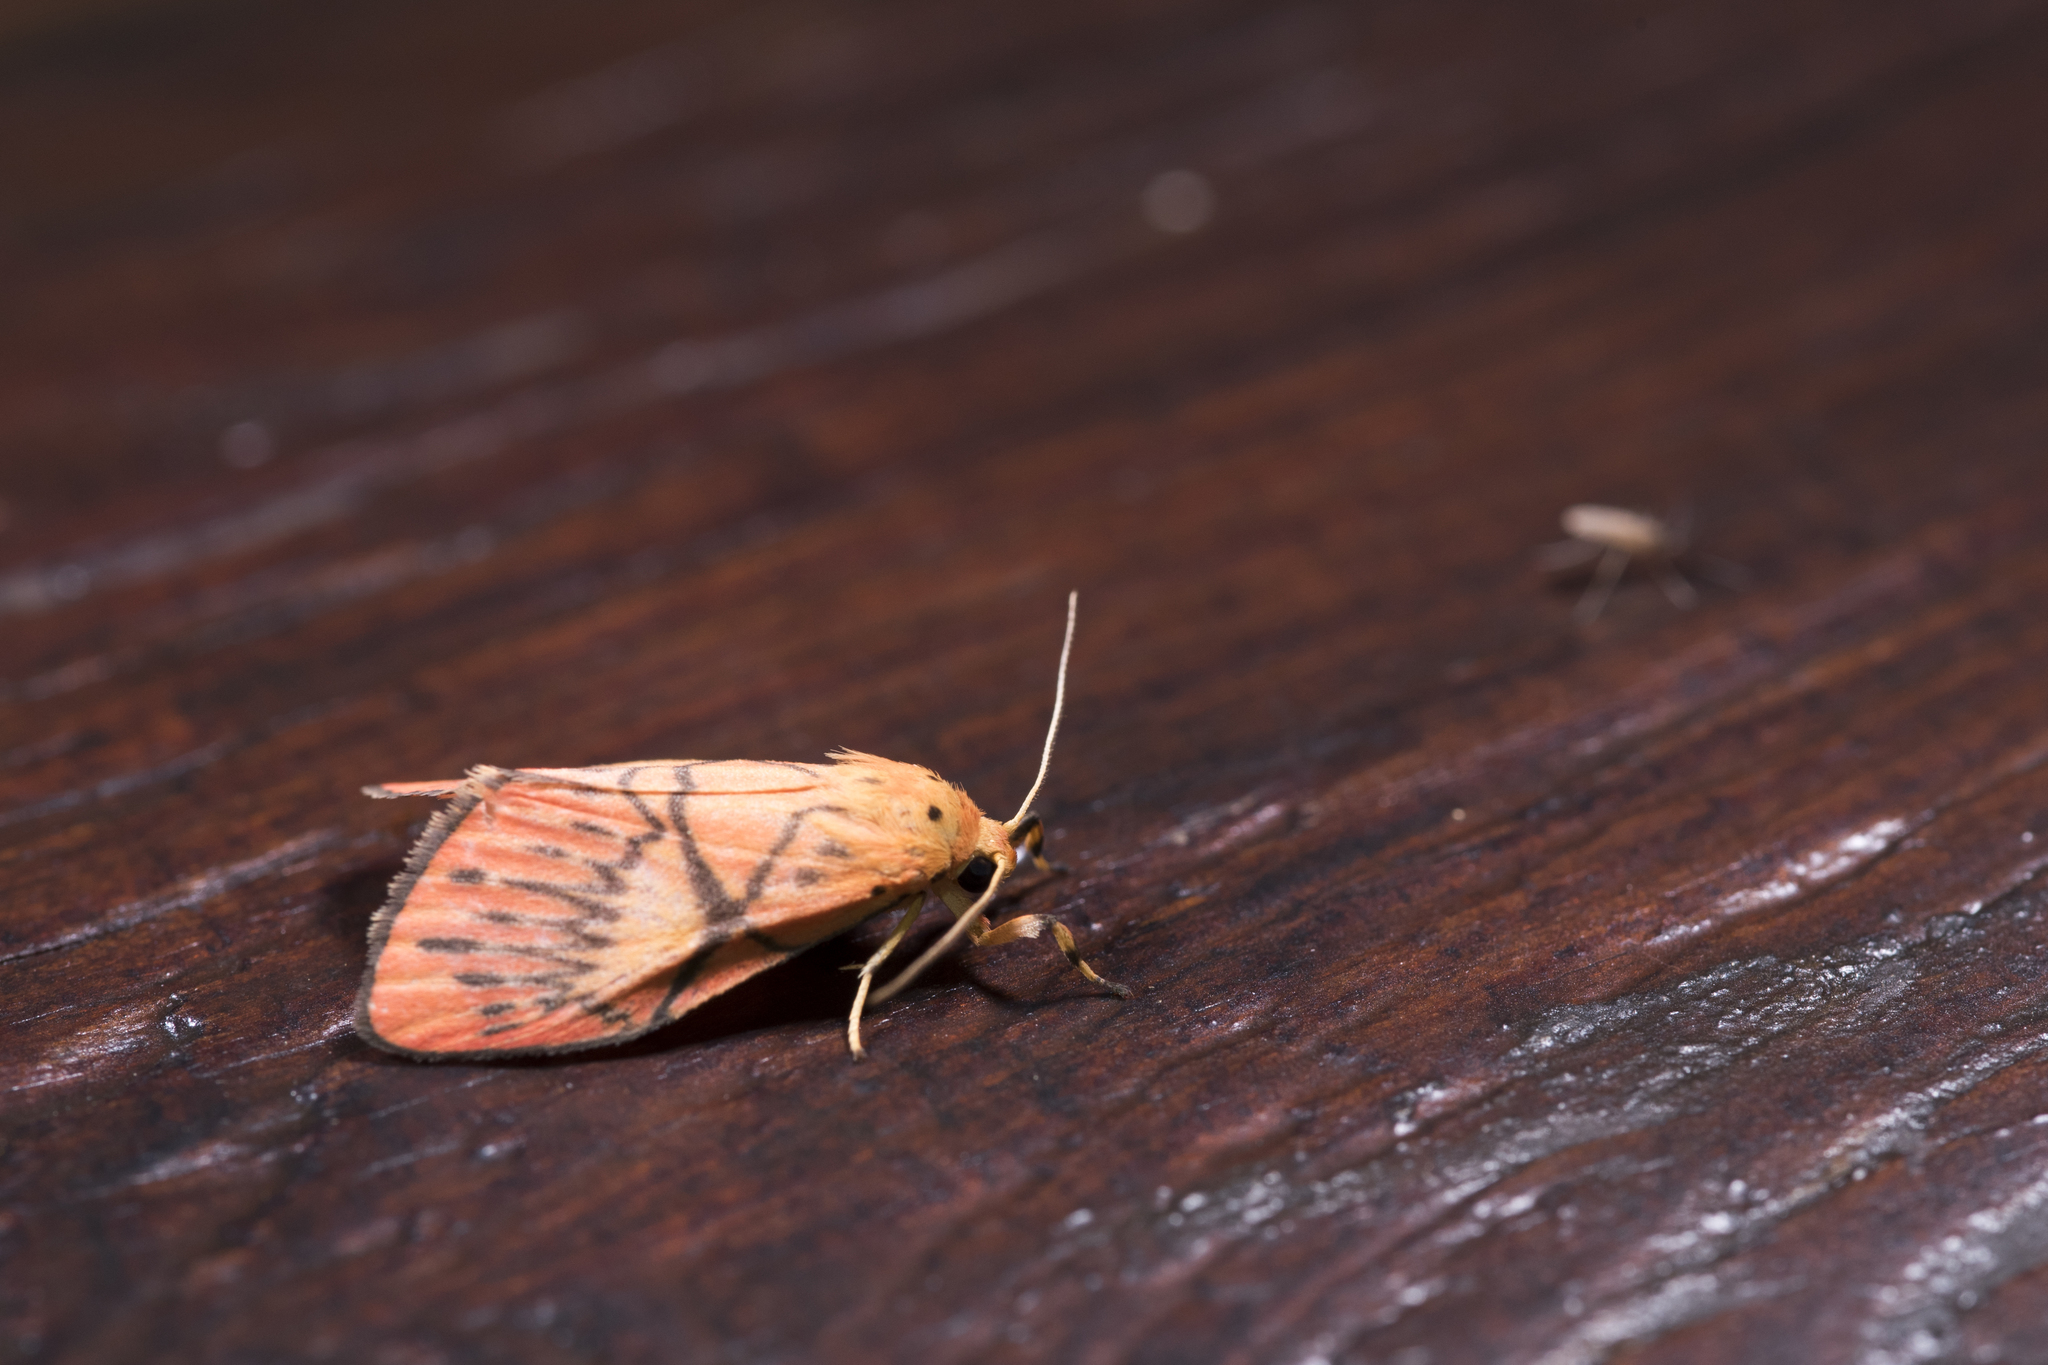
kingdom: Animalia
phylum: Arthropoda
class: Insecta
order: Lepidoptera
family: Erebidae
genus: Aberrasine
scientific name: Aberrasine shiou
